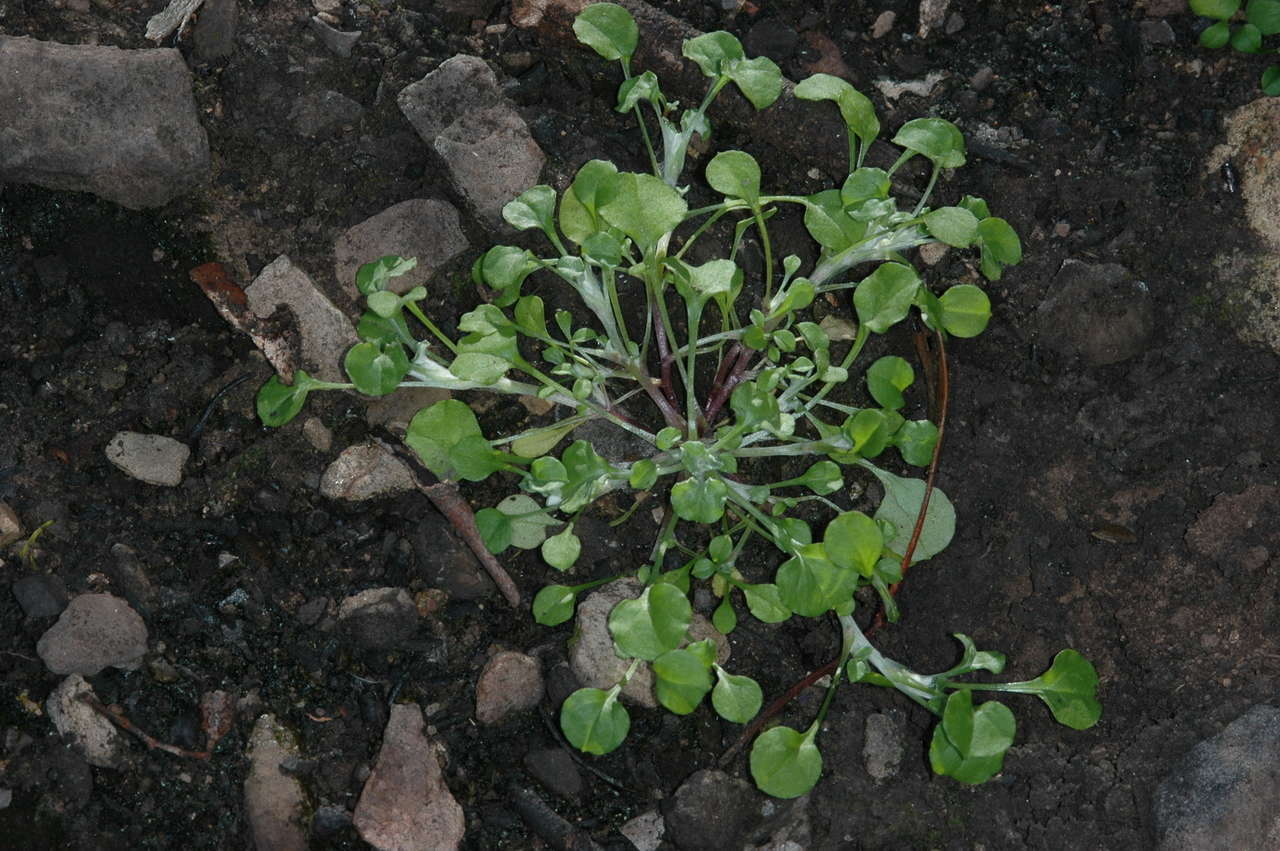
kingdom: Plantae
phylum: Tracheophyta
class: Magnoliopsida
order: Asterales
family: Asteraceae
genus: Stuartina
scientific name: Stuartina muelleri
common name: Spoon-leaved cudweed
